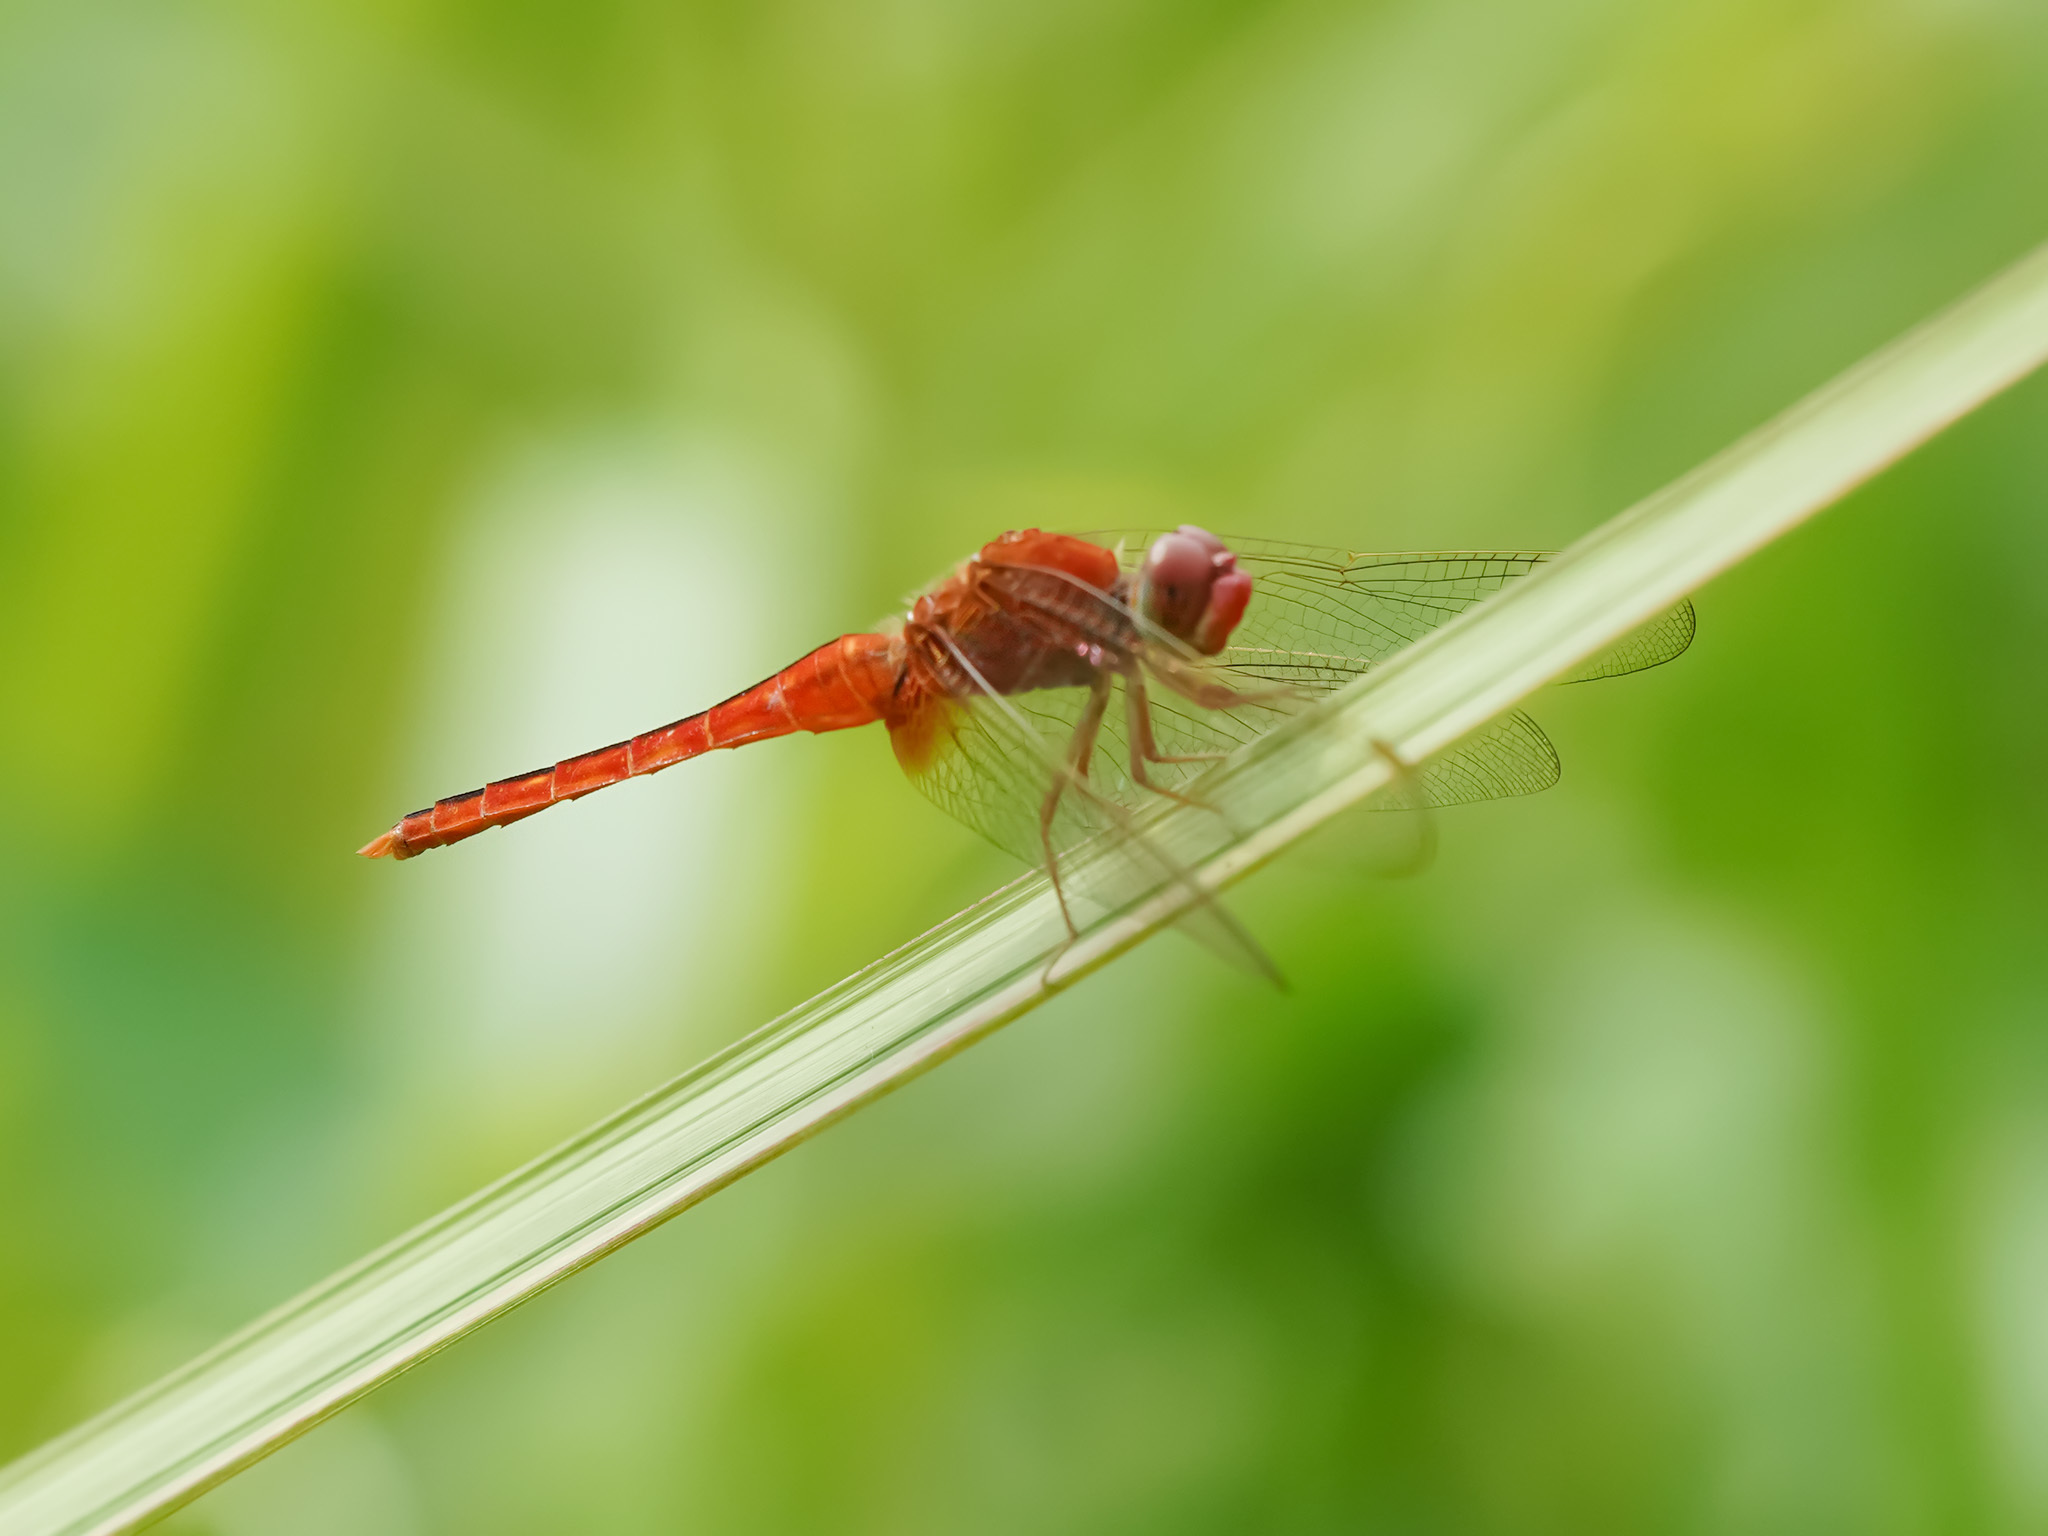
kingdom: Animalia
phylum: Arthropoda
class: Insecta
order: Odonata
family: Libellulidae
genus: Crocothemis
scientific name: Crocothemis servilia
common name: Scarlet skimmer
